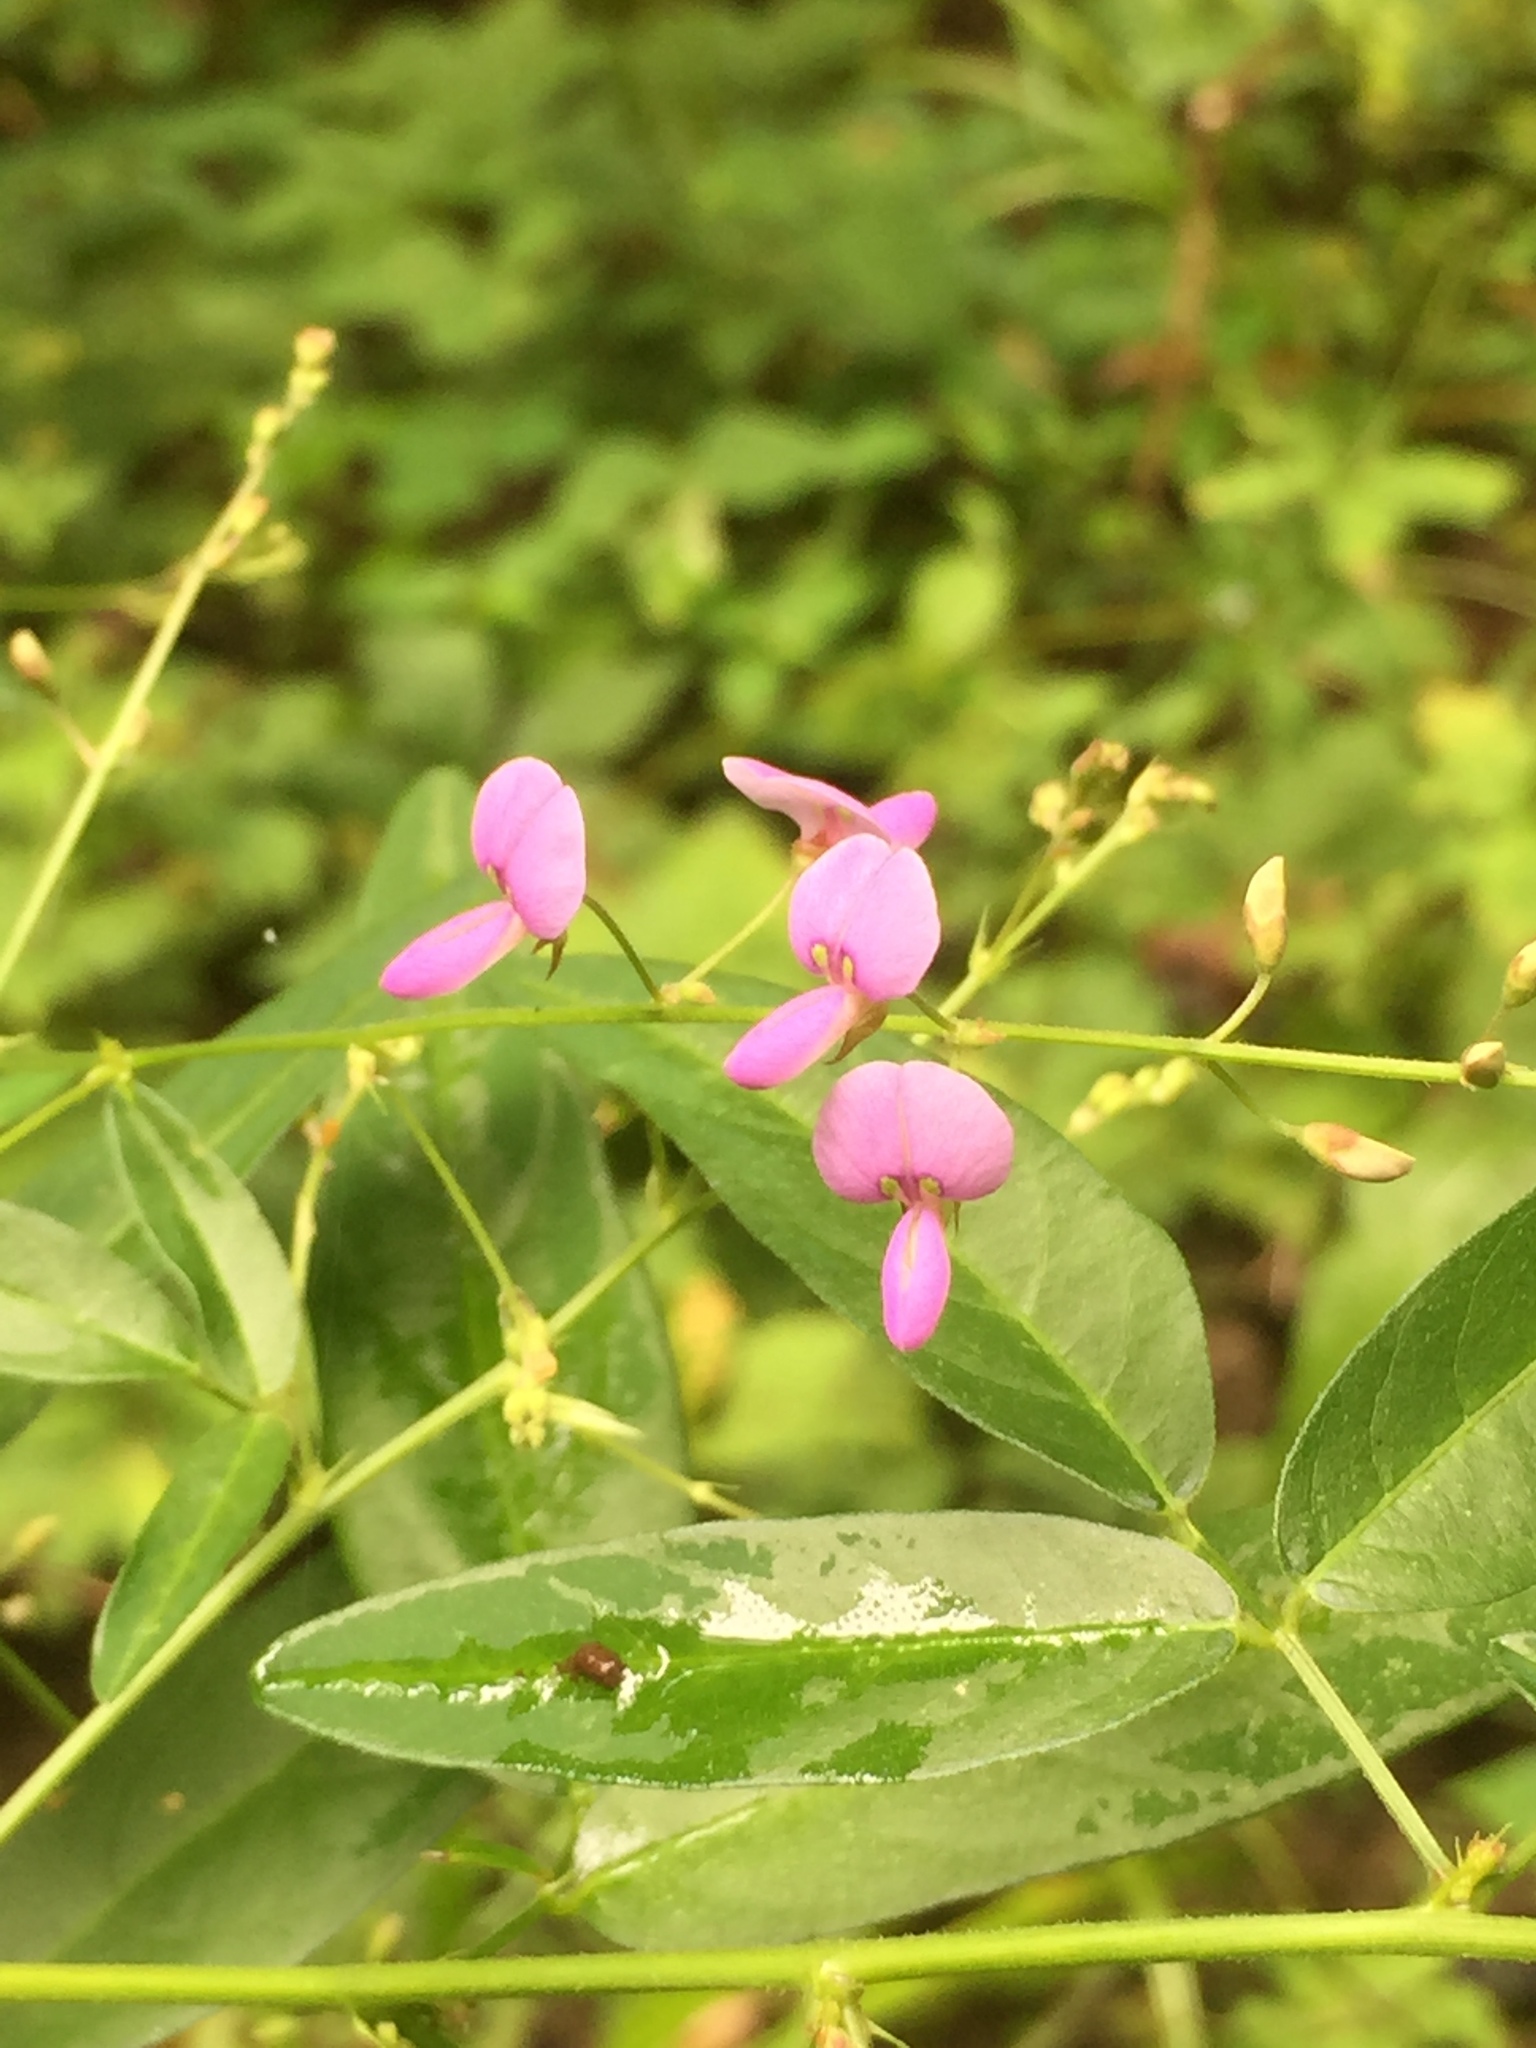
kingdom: Plantae
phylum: Tracheophyta
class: Magnoliopsida
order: Fabales
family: Fabaceae
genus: Desmodium
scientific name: Desmodium paniculatum
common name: Panicled tick-clover
